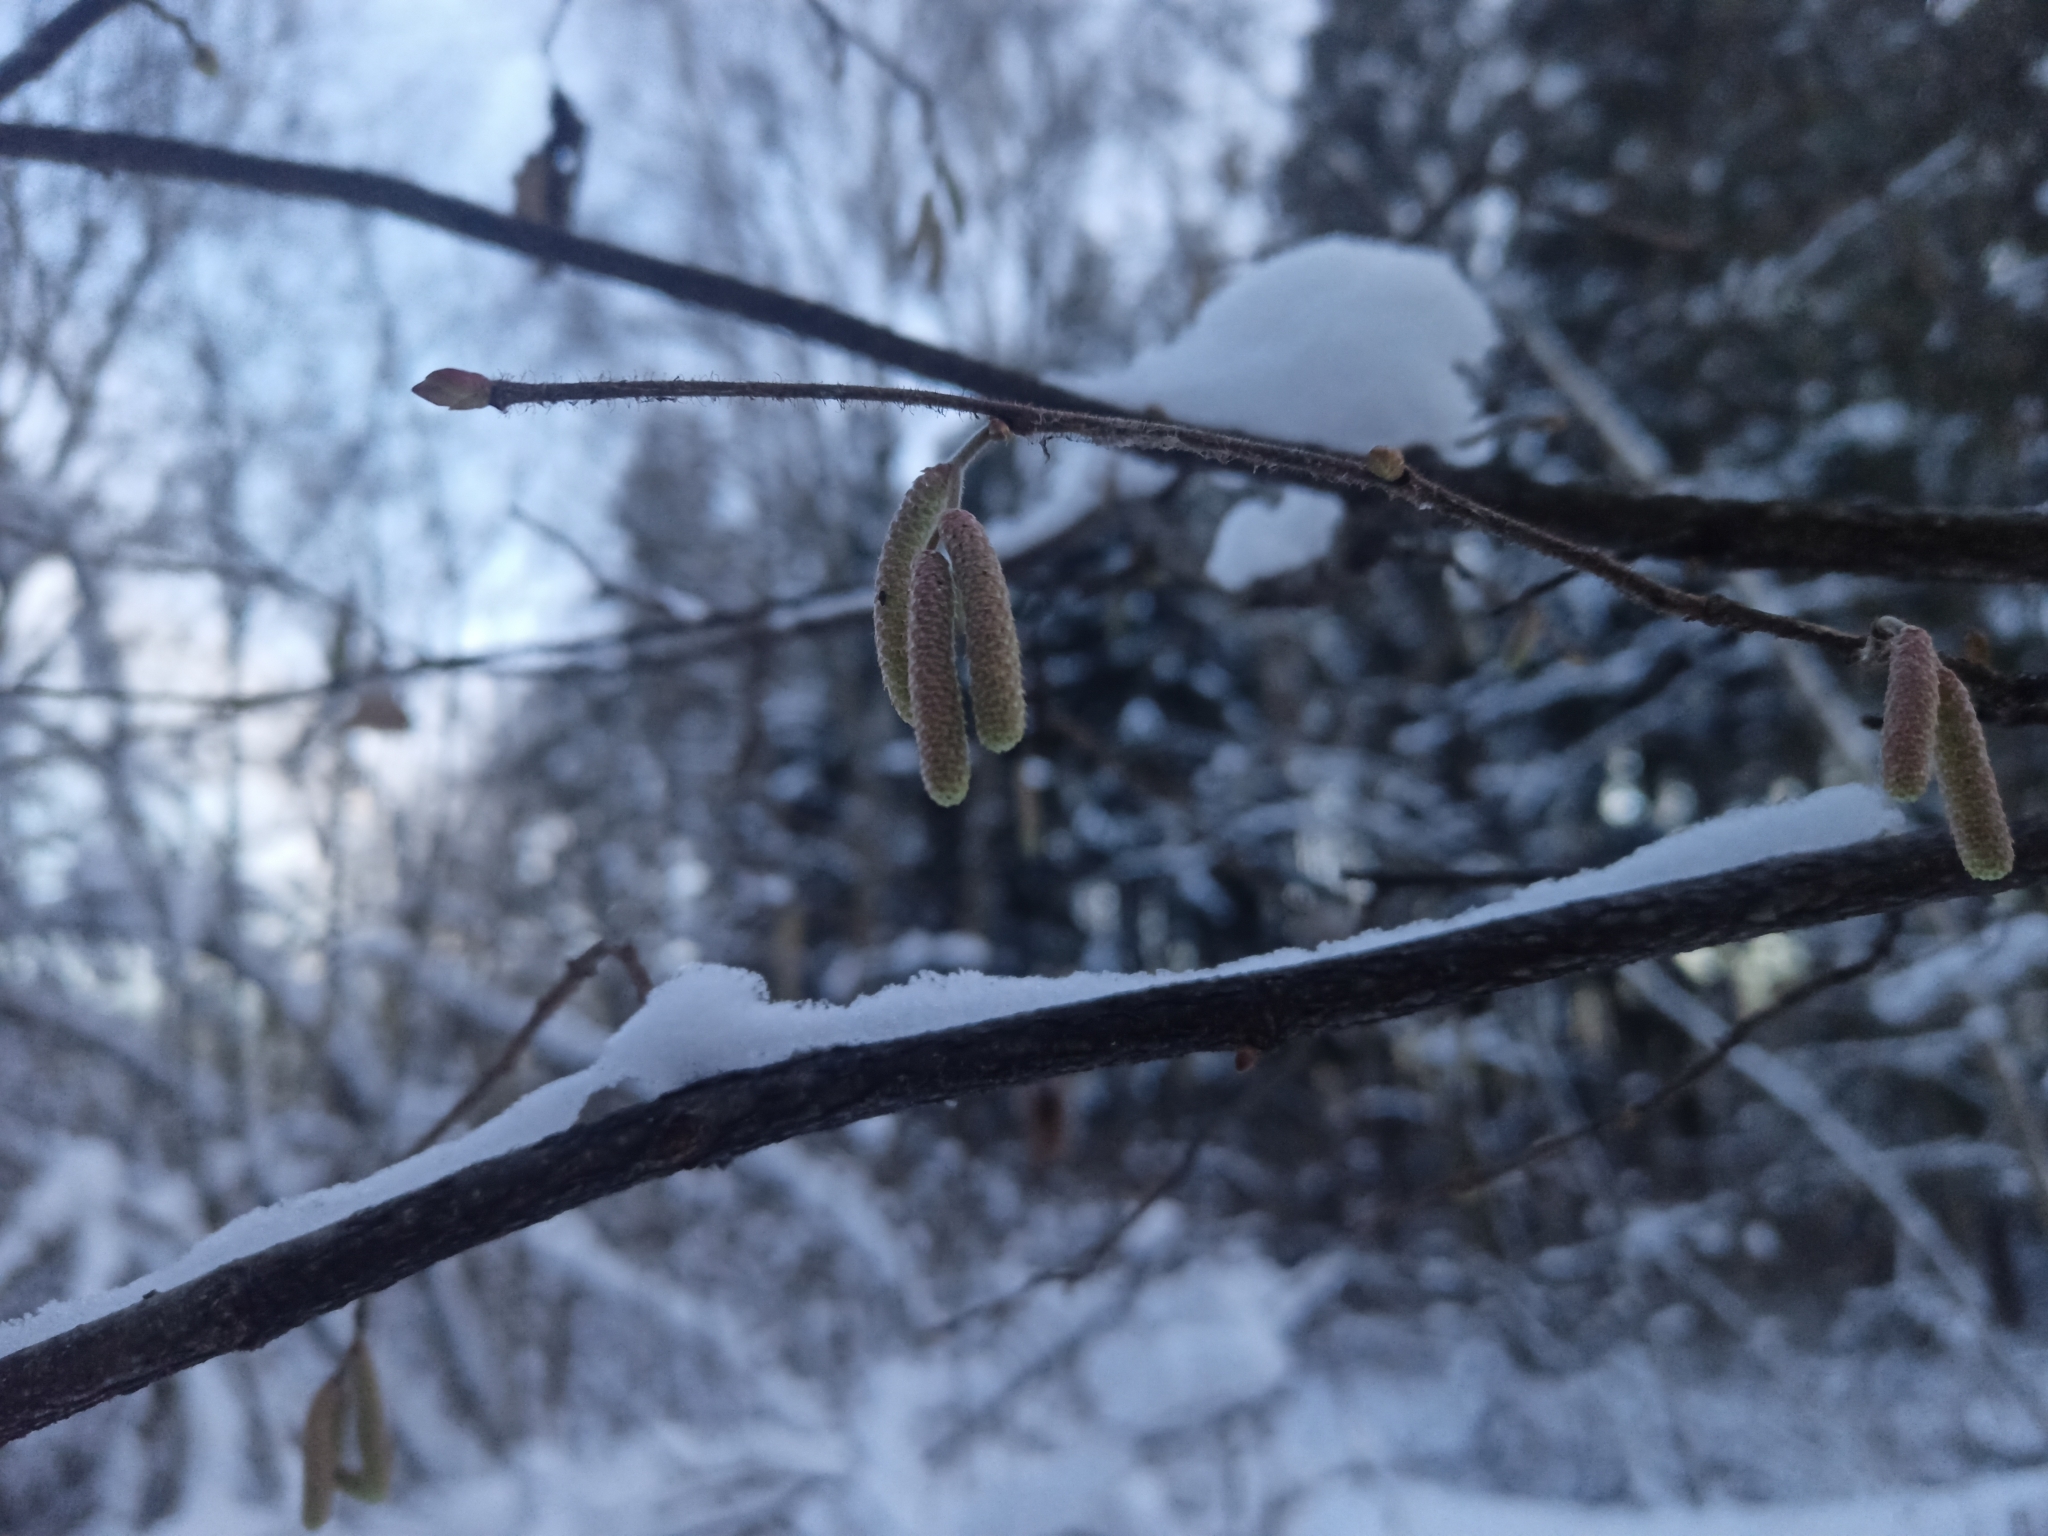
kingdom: Plantae
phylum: Tracheophyta
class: Magnoliopsida
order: Fagales
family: Betulaceae
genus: Corylus
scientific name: Corylus avellana
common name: European hazel
